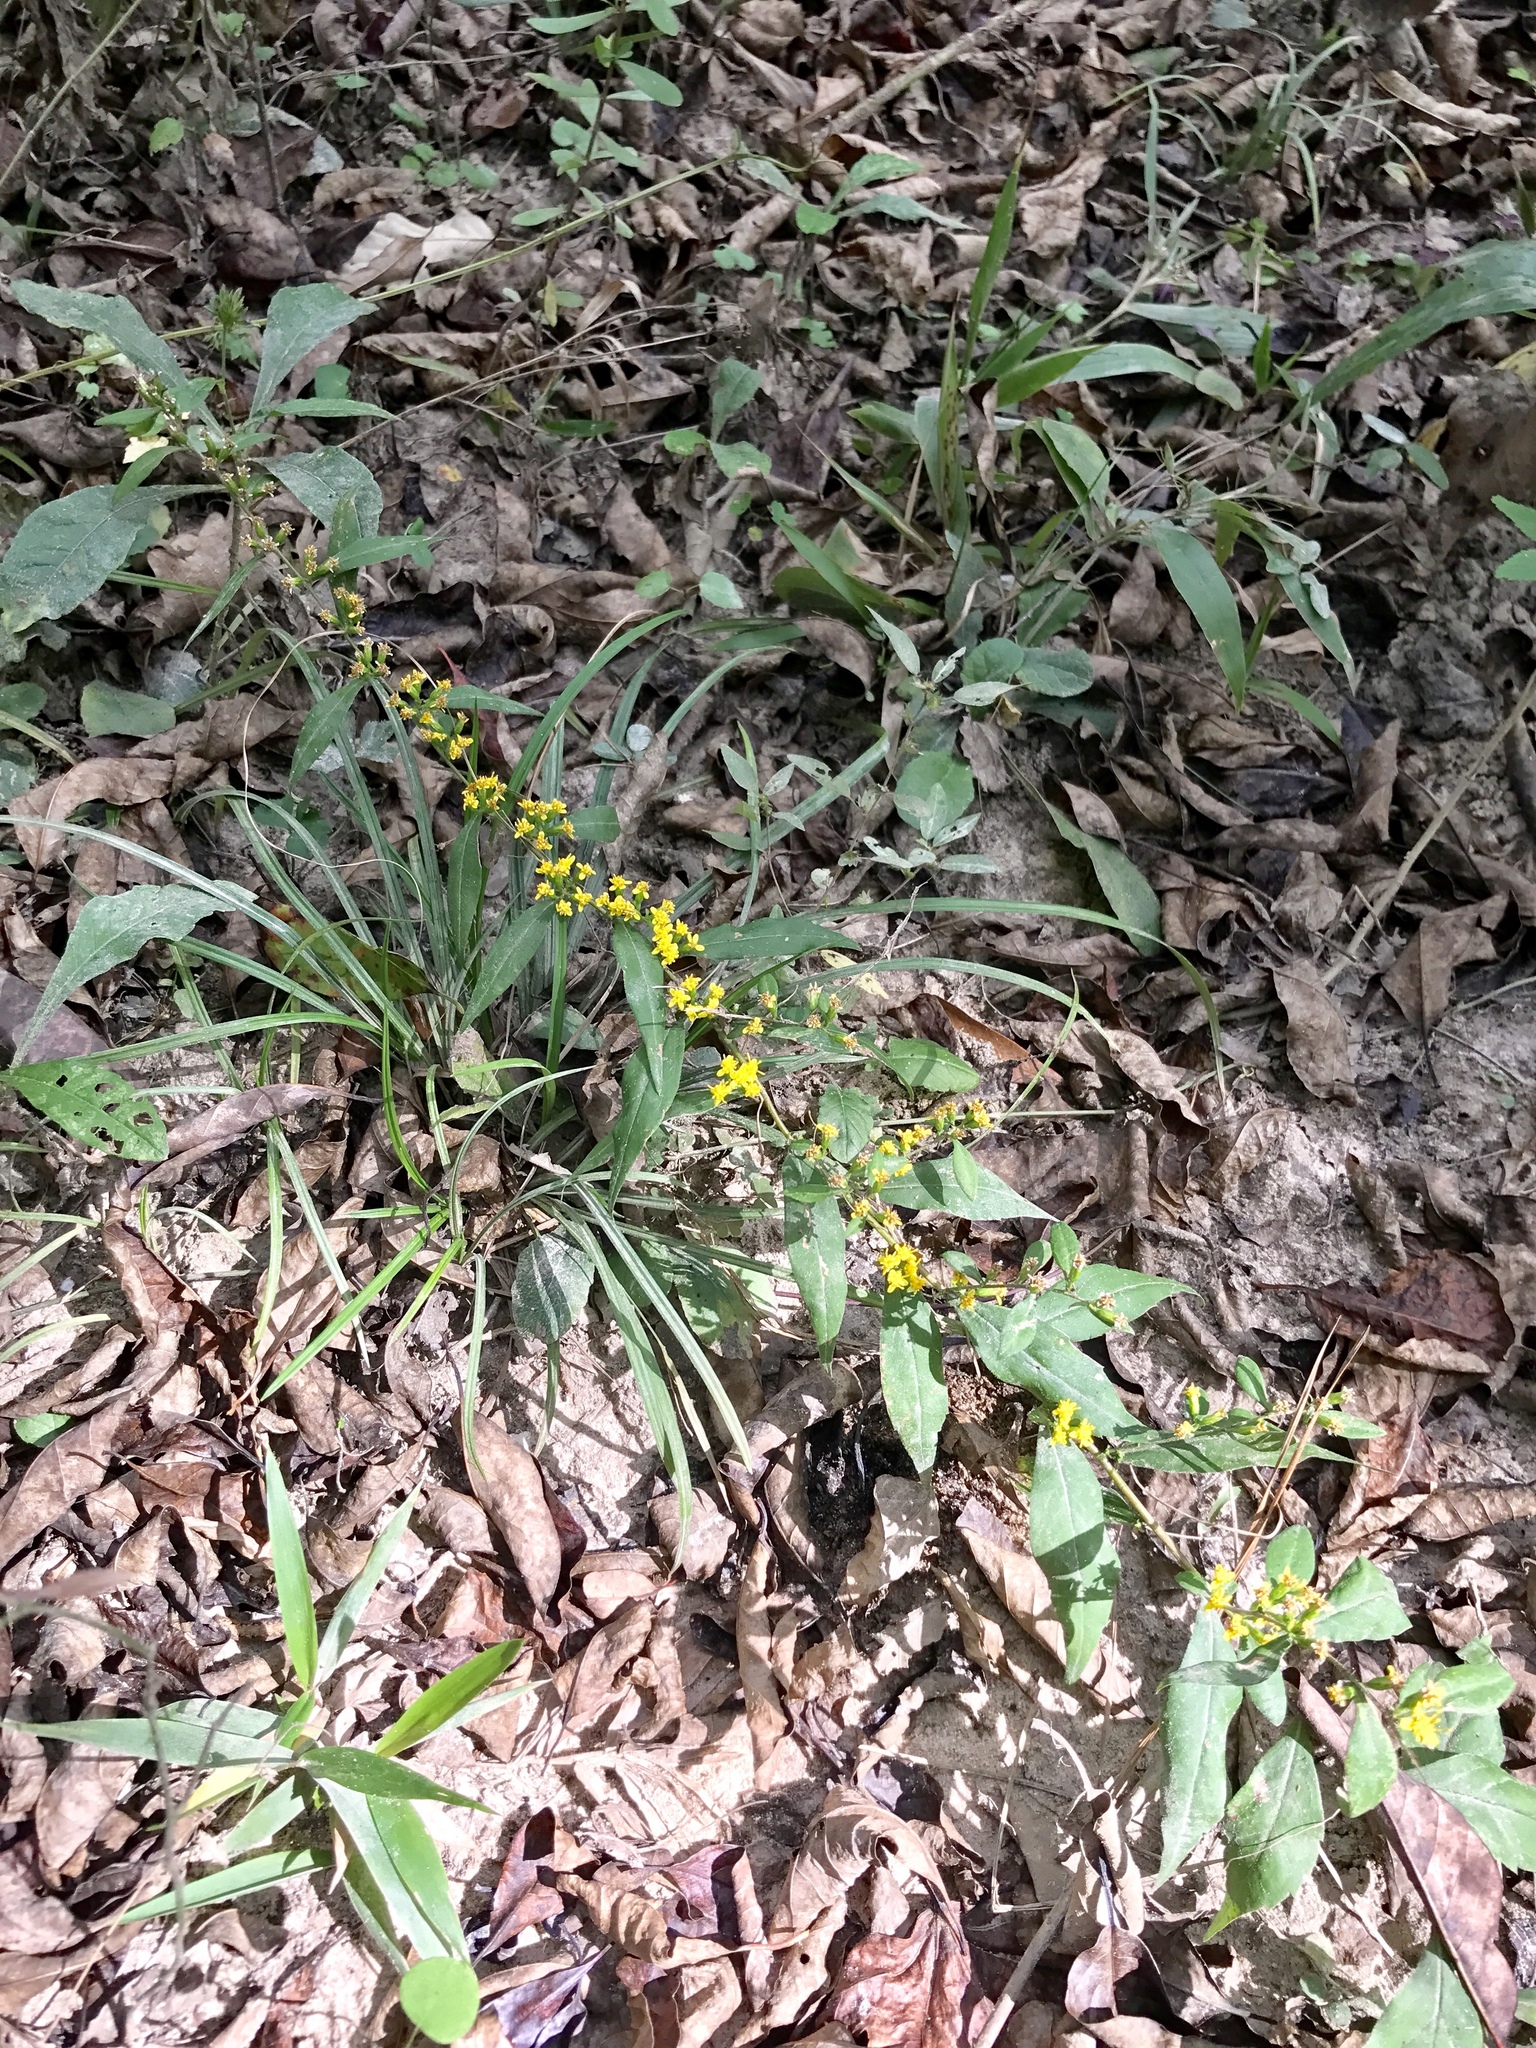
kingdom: Plantae
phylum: Tracheophyta
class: Magnoliopsida
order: Asterales
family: Asteraceae
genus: Solidago
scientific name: Solidago caesia
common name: Woodland goldenrod
